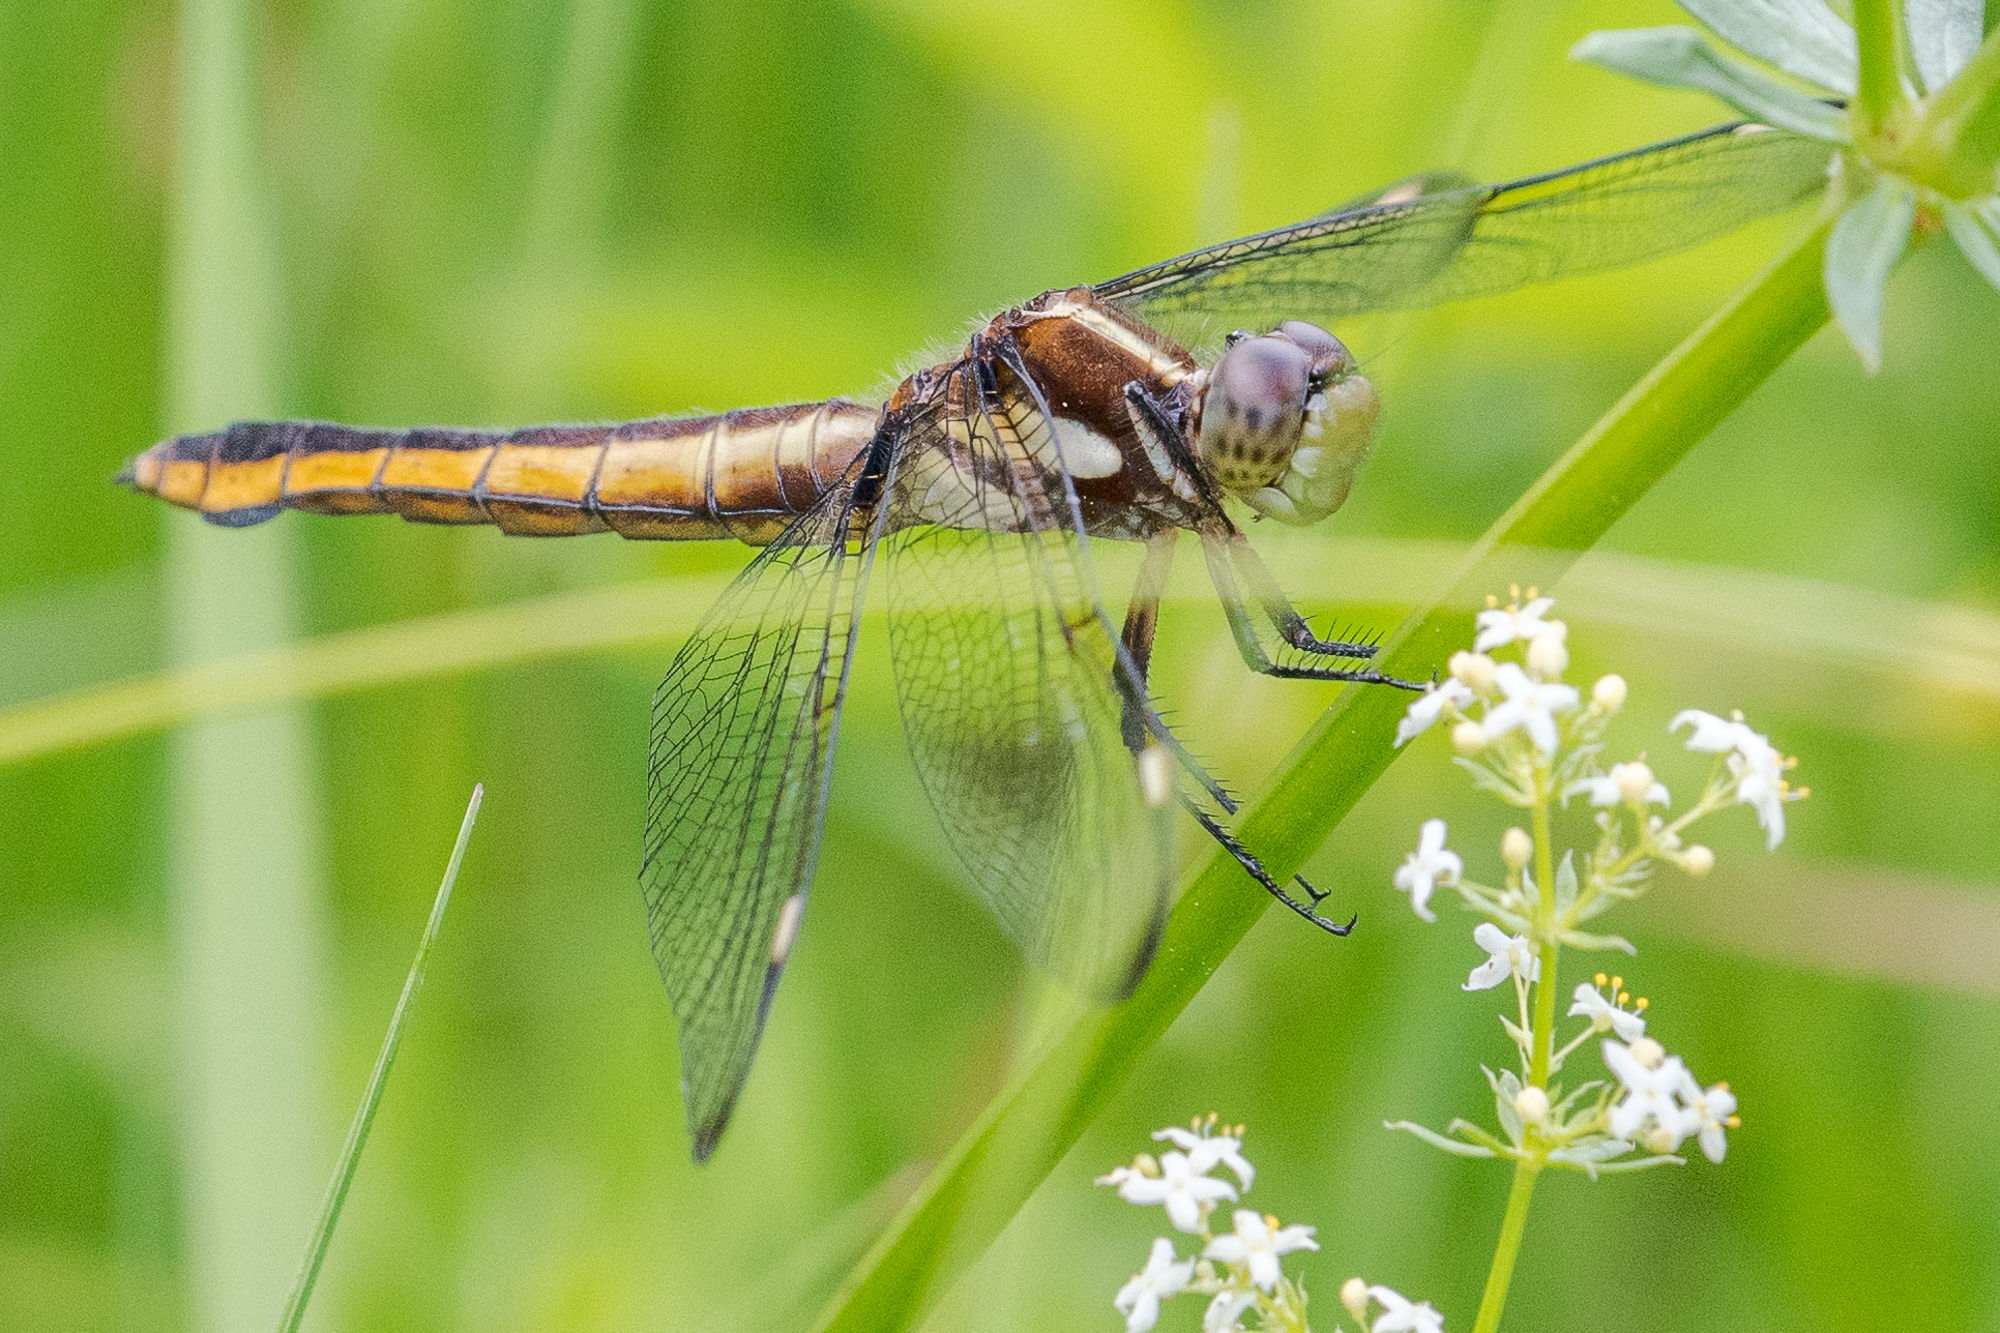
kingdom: Animalia
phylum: Arthropoda
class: Insecta
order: Odonata
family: Libellulidae
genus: Libellula
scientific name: Libellula cyanea
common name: Spangled skimmer
